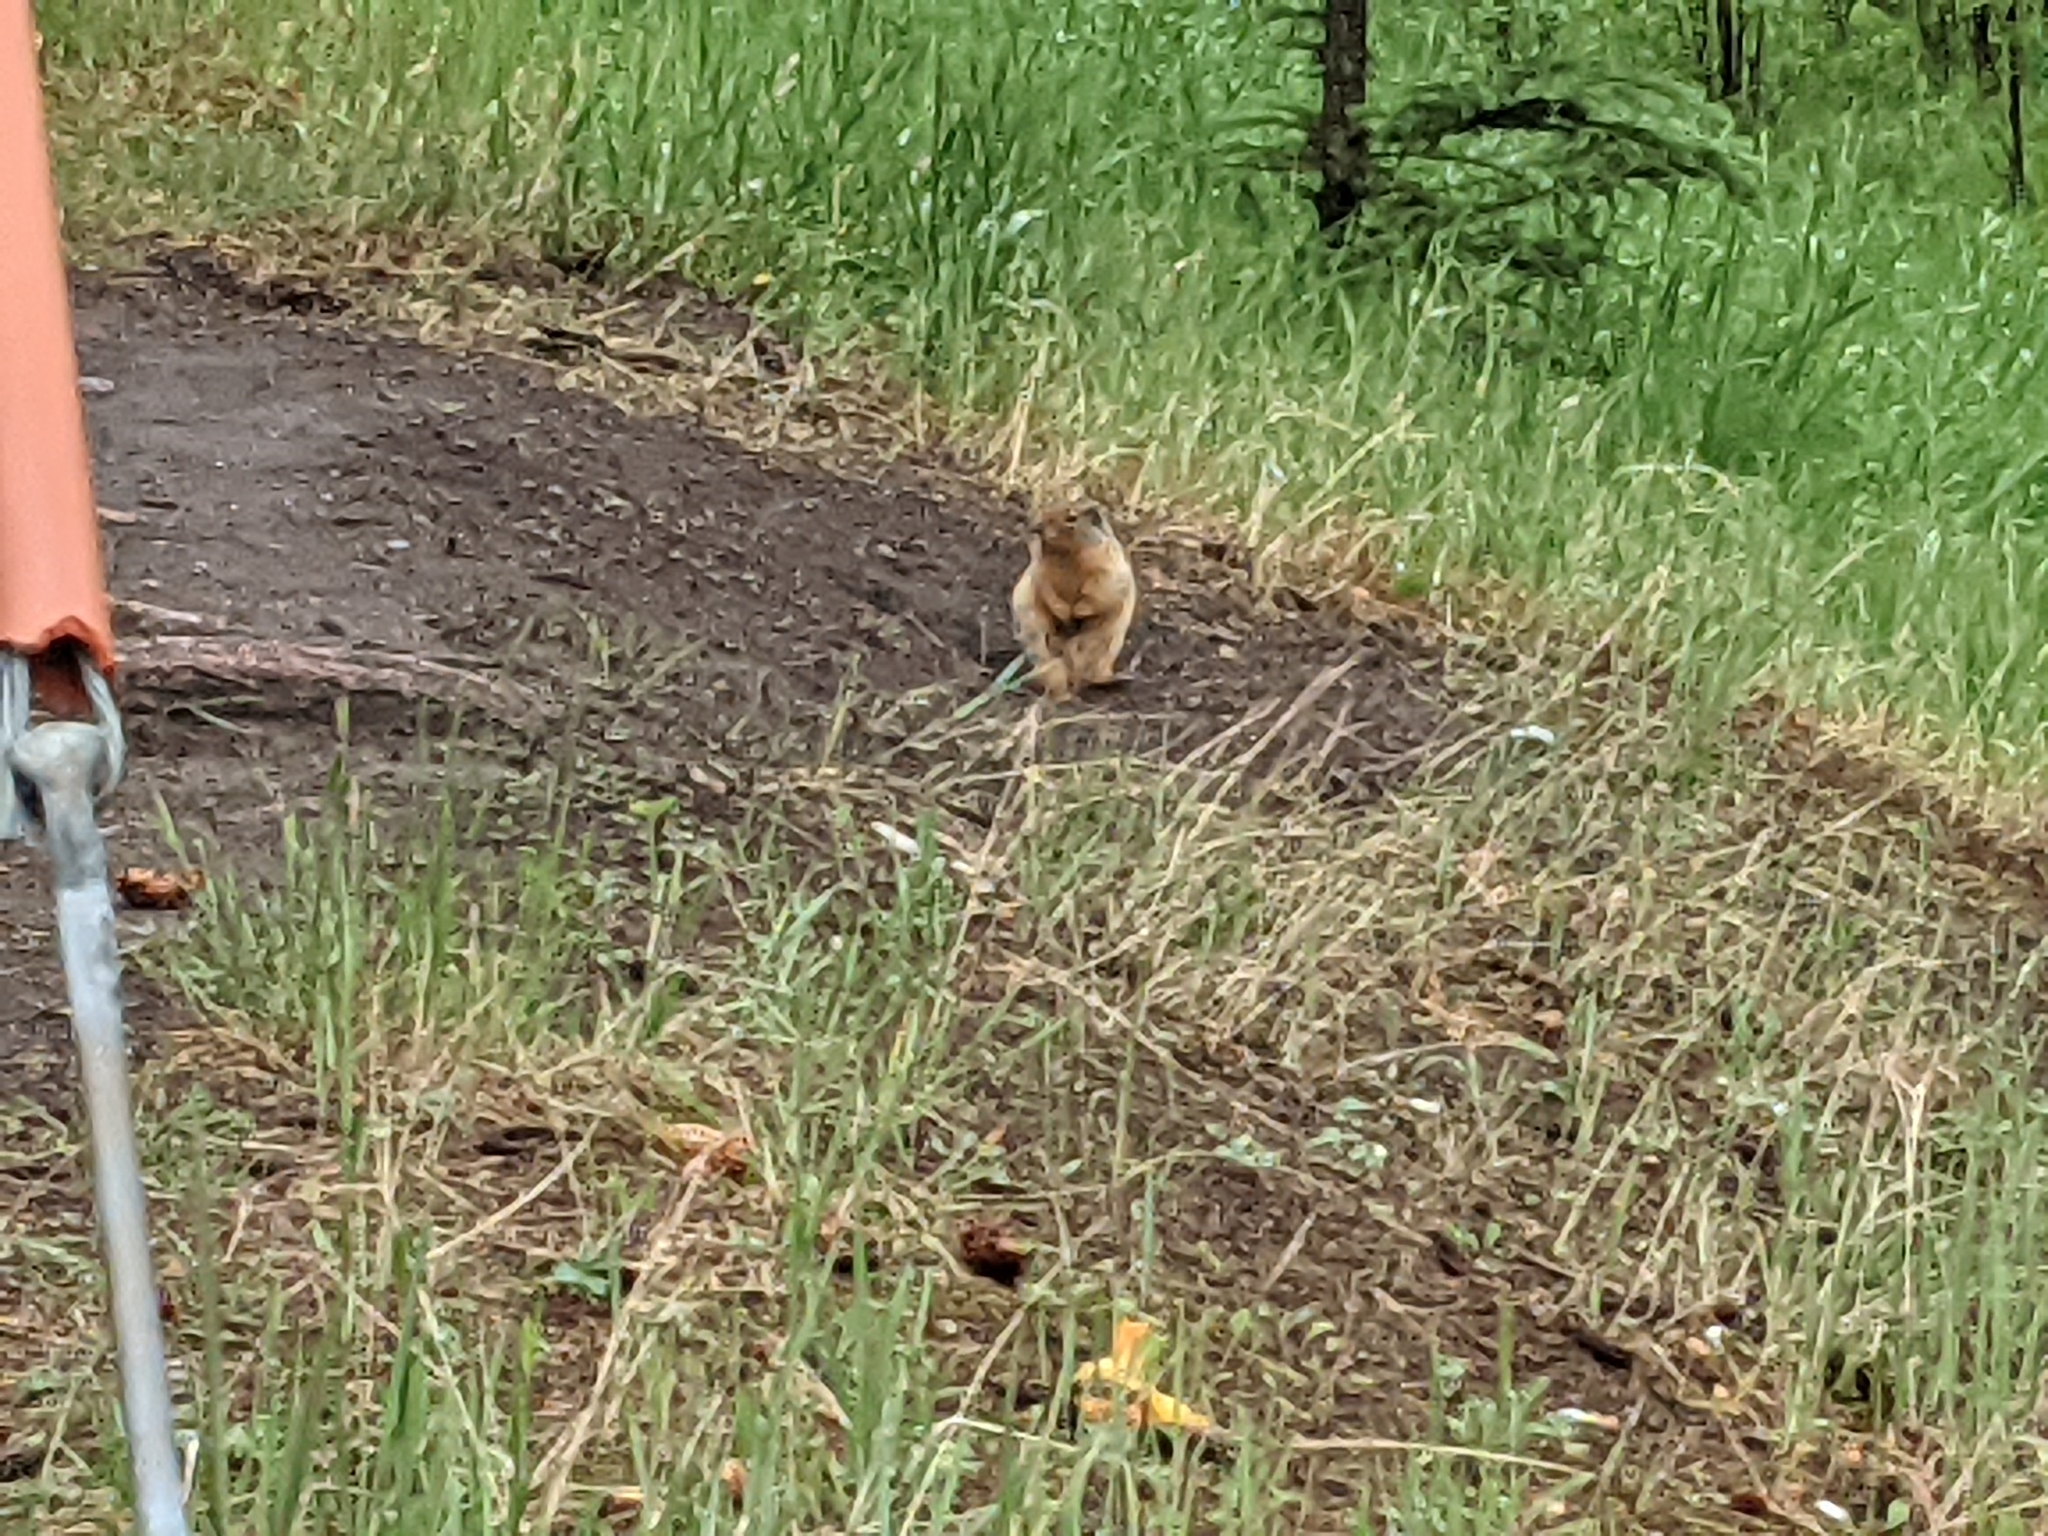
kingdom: Animalia
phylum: Chordata
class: Mammalia
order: Rodentia
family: Sciuridae
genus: Urocitellus
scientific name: Urocitellus columbianus
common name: Columbian ground squirrel
